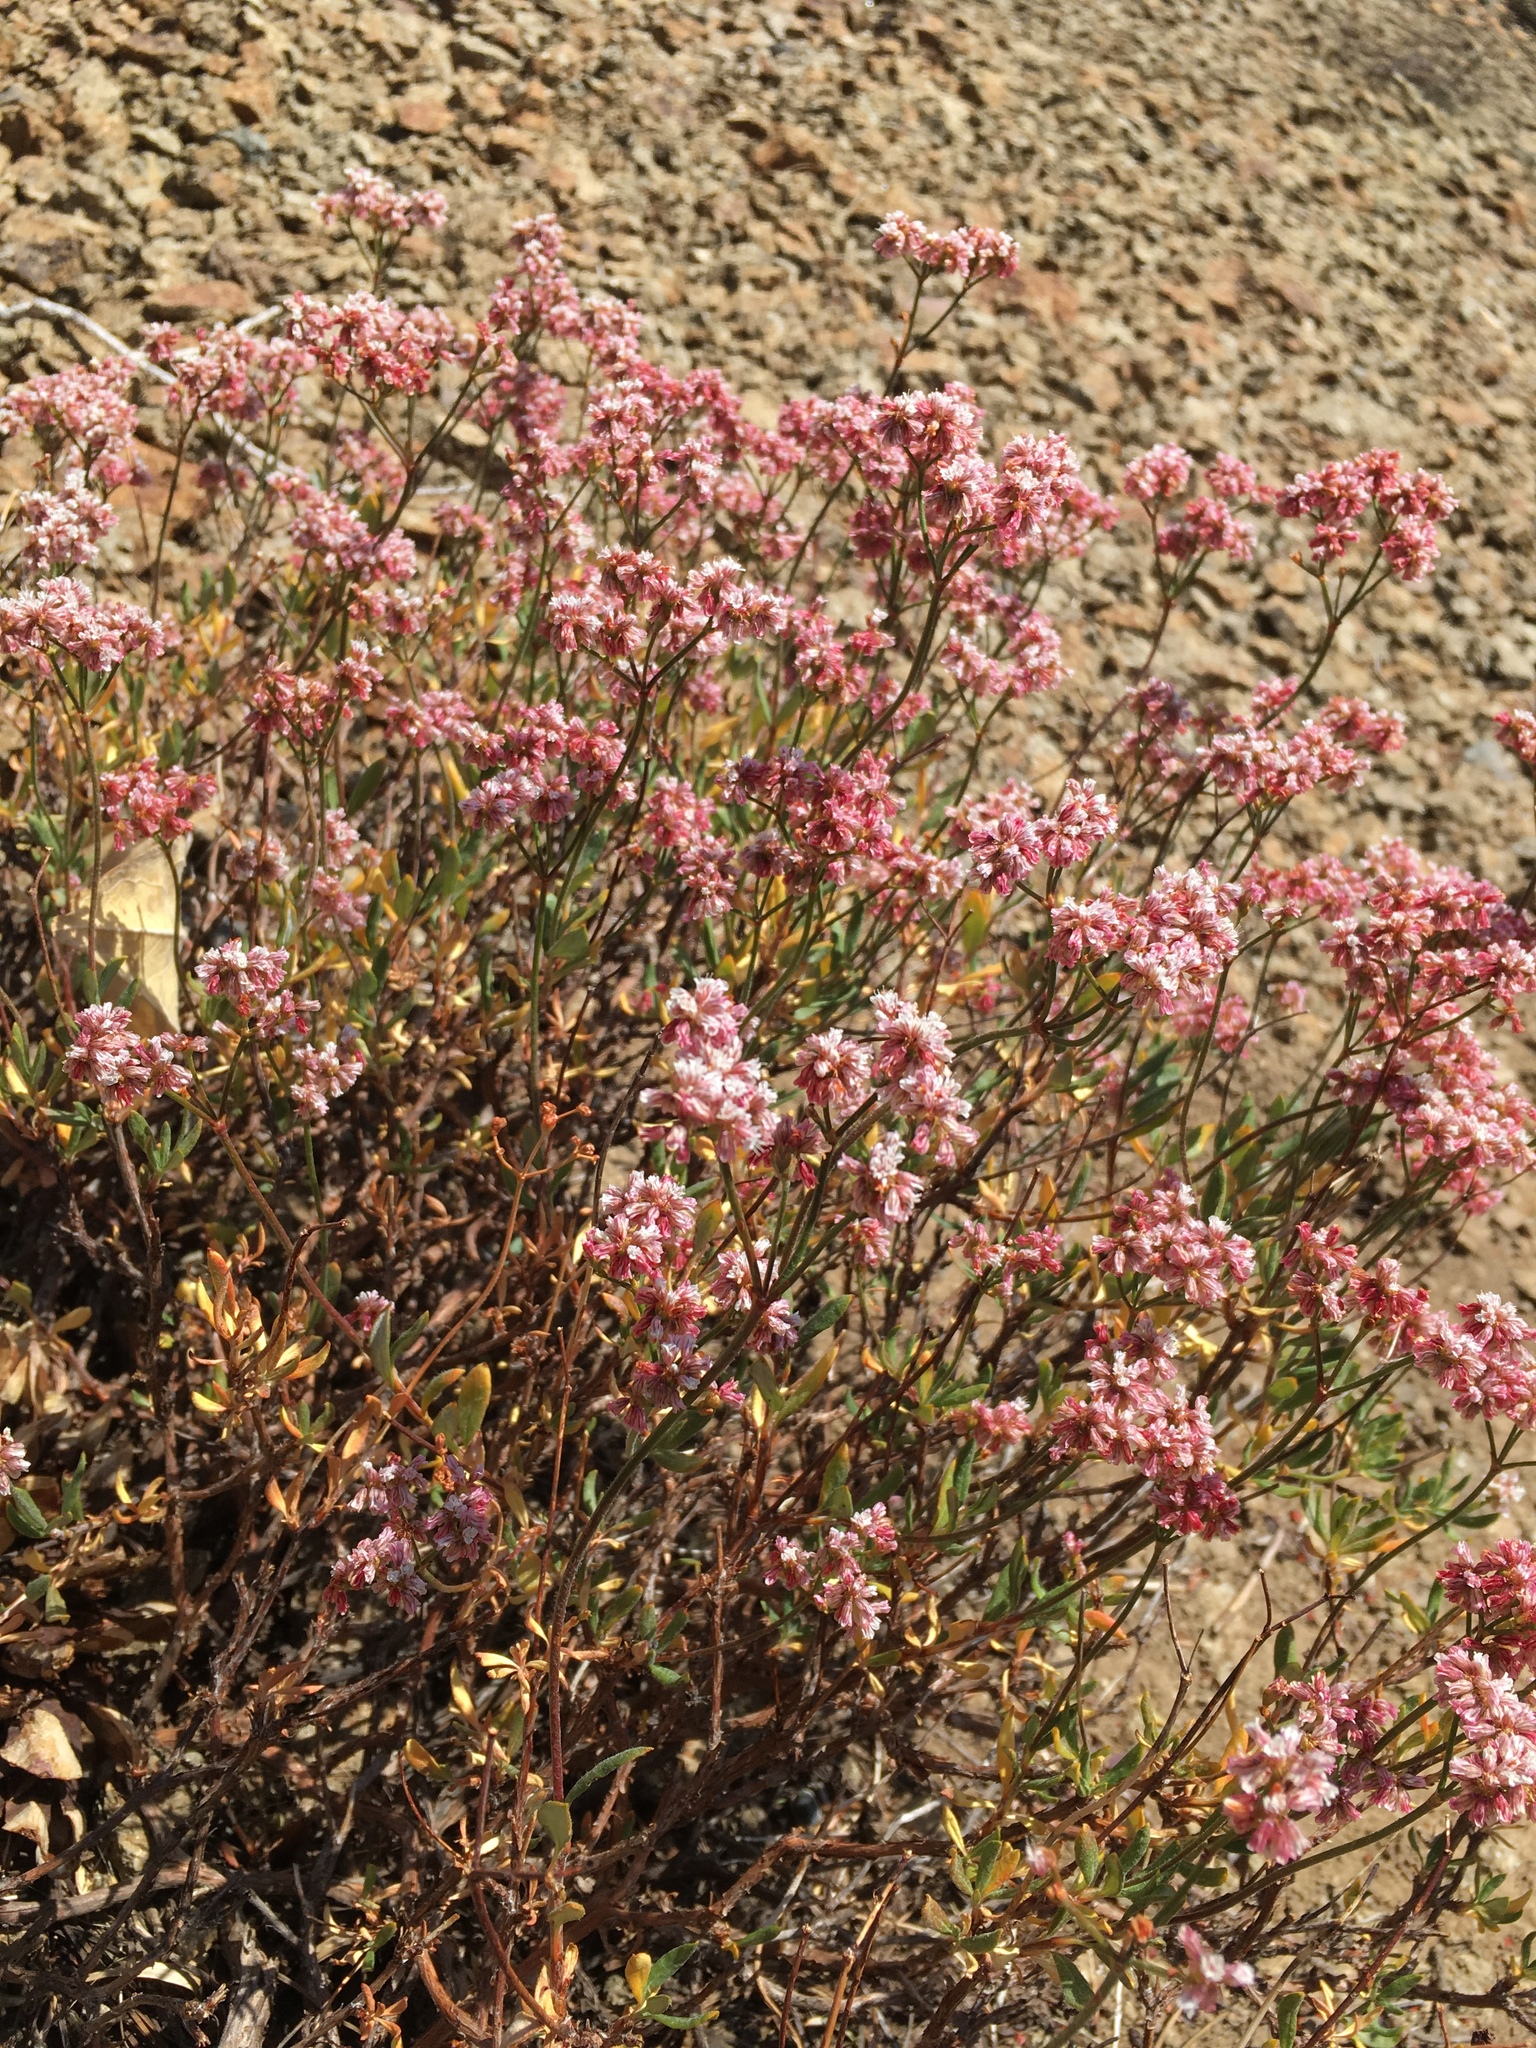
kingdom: Plantae
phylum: Tracheophyta
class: Magnoliopsida
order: Caryophyllales
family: Polygonaceae
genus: Eriogonum
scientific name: Eriogonum microtheca
